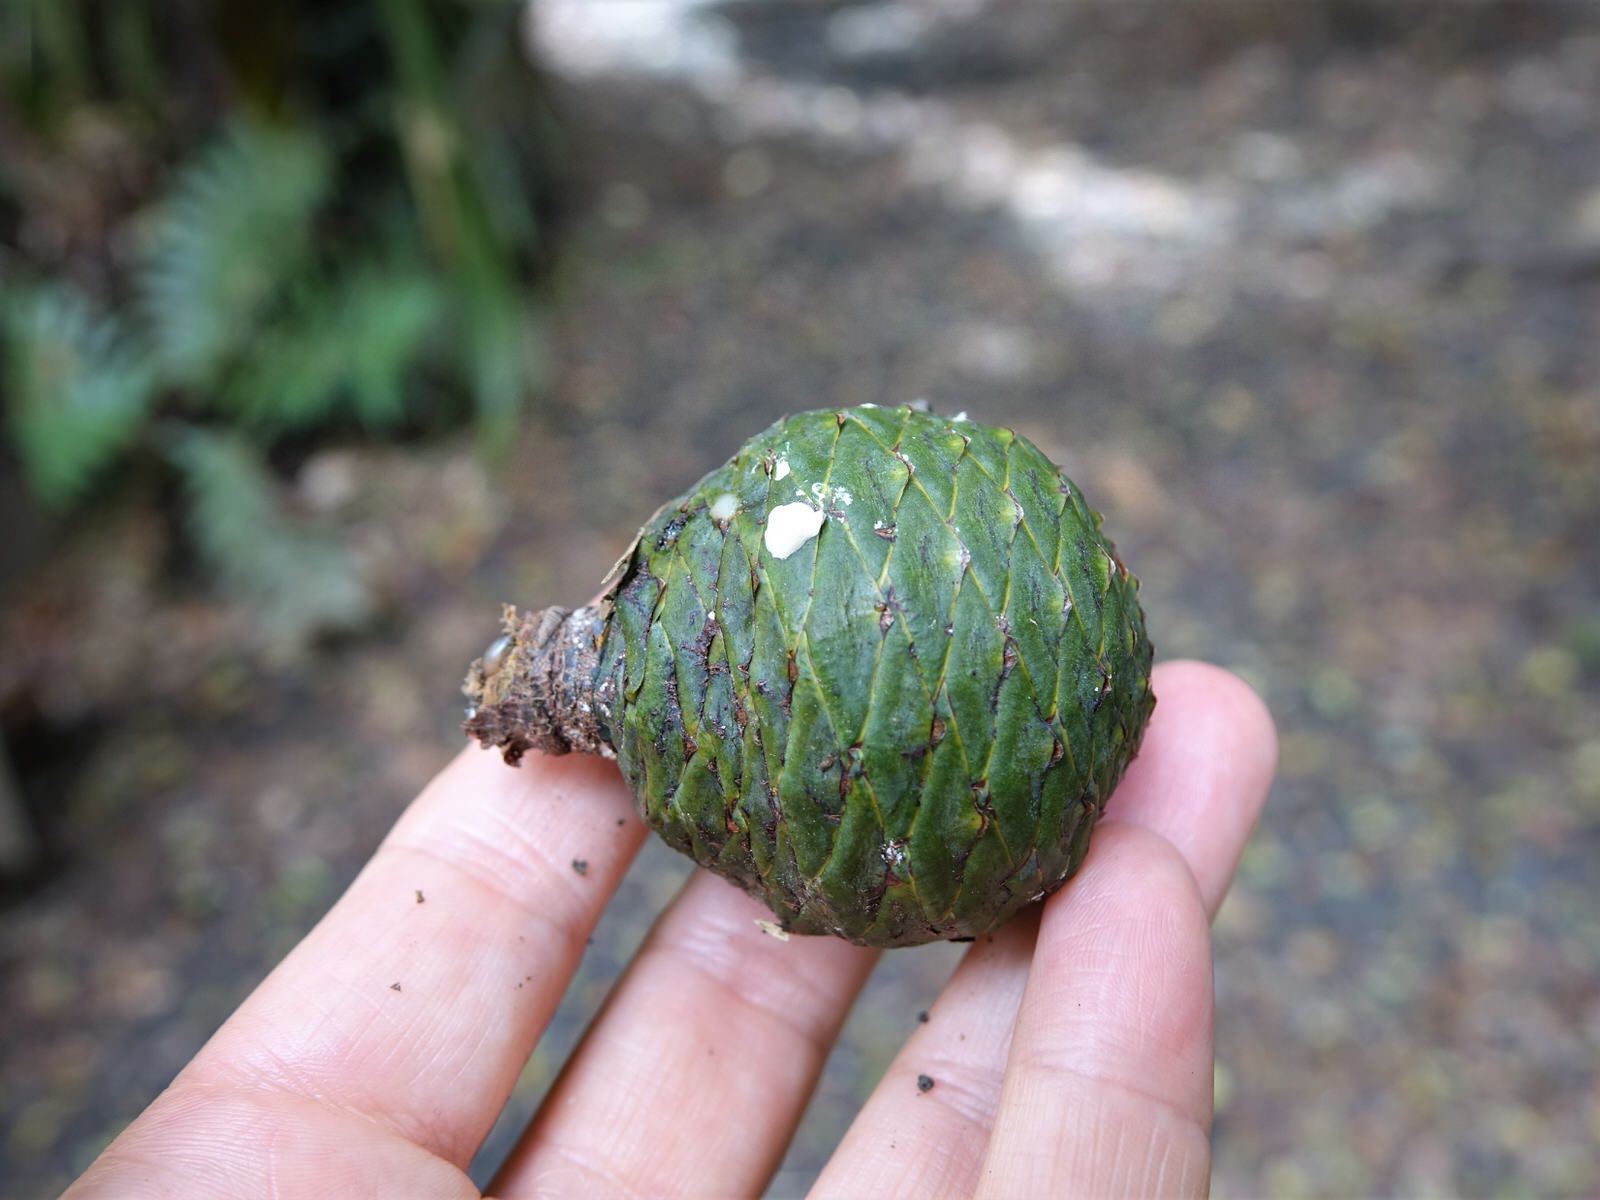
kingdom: Plantae
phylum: Tracheophyta
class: Pinopsida
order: Pinales
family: Araucariaceae
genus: Agathis
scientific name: Agathis australis
